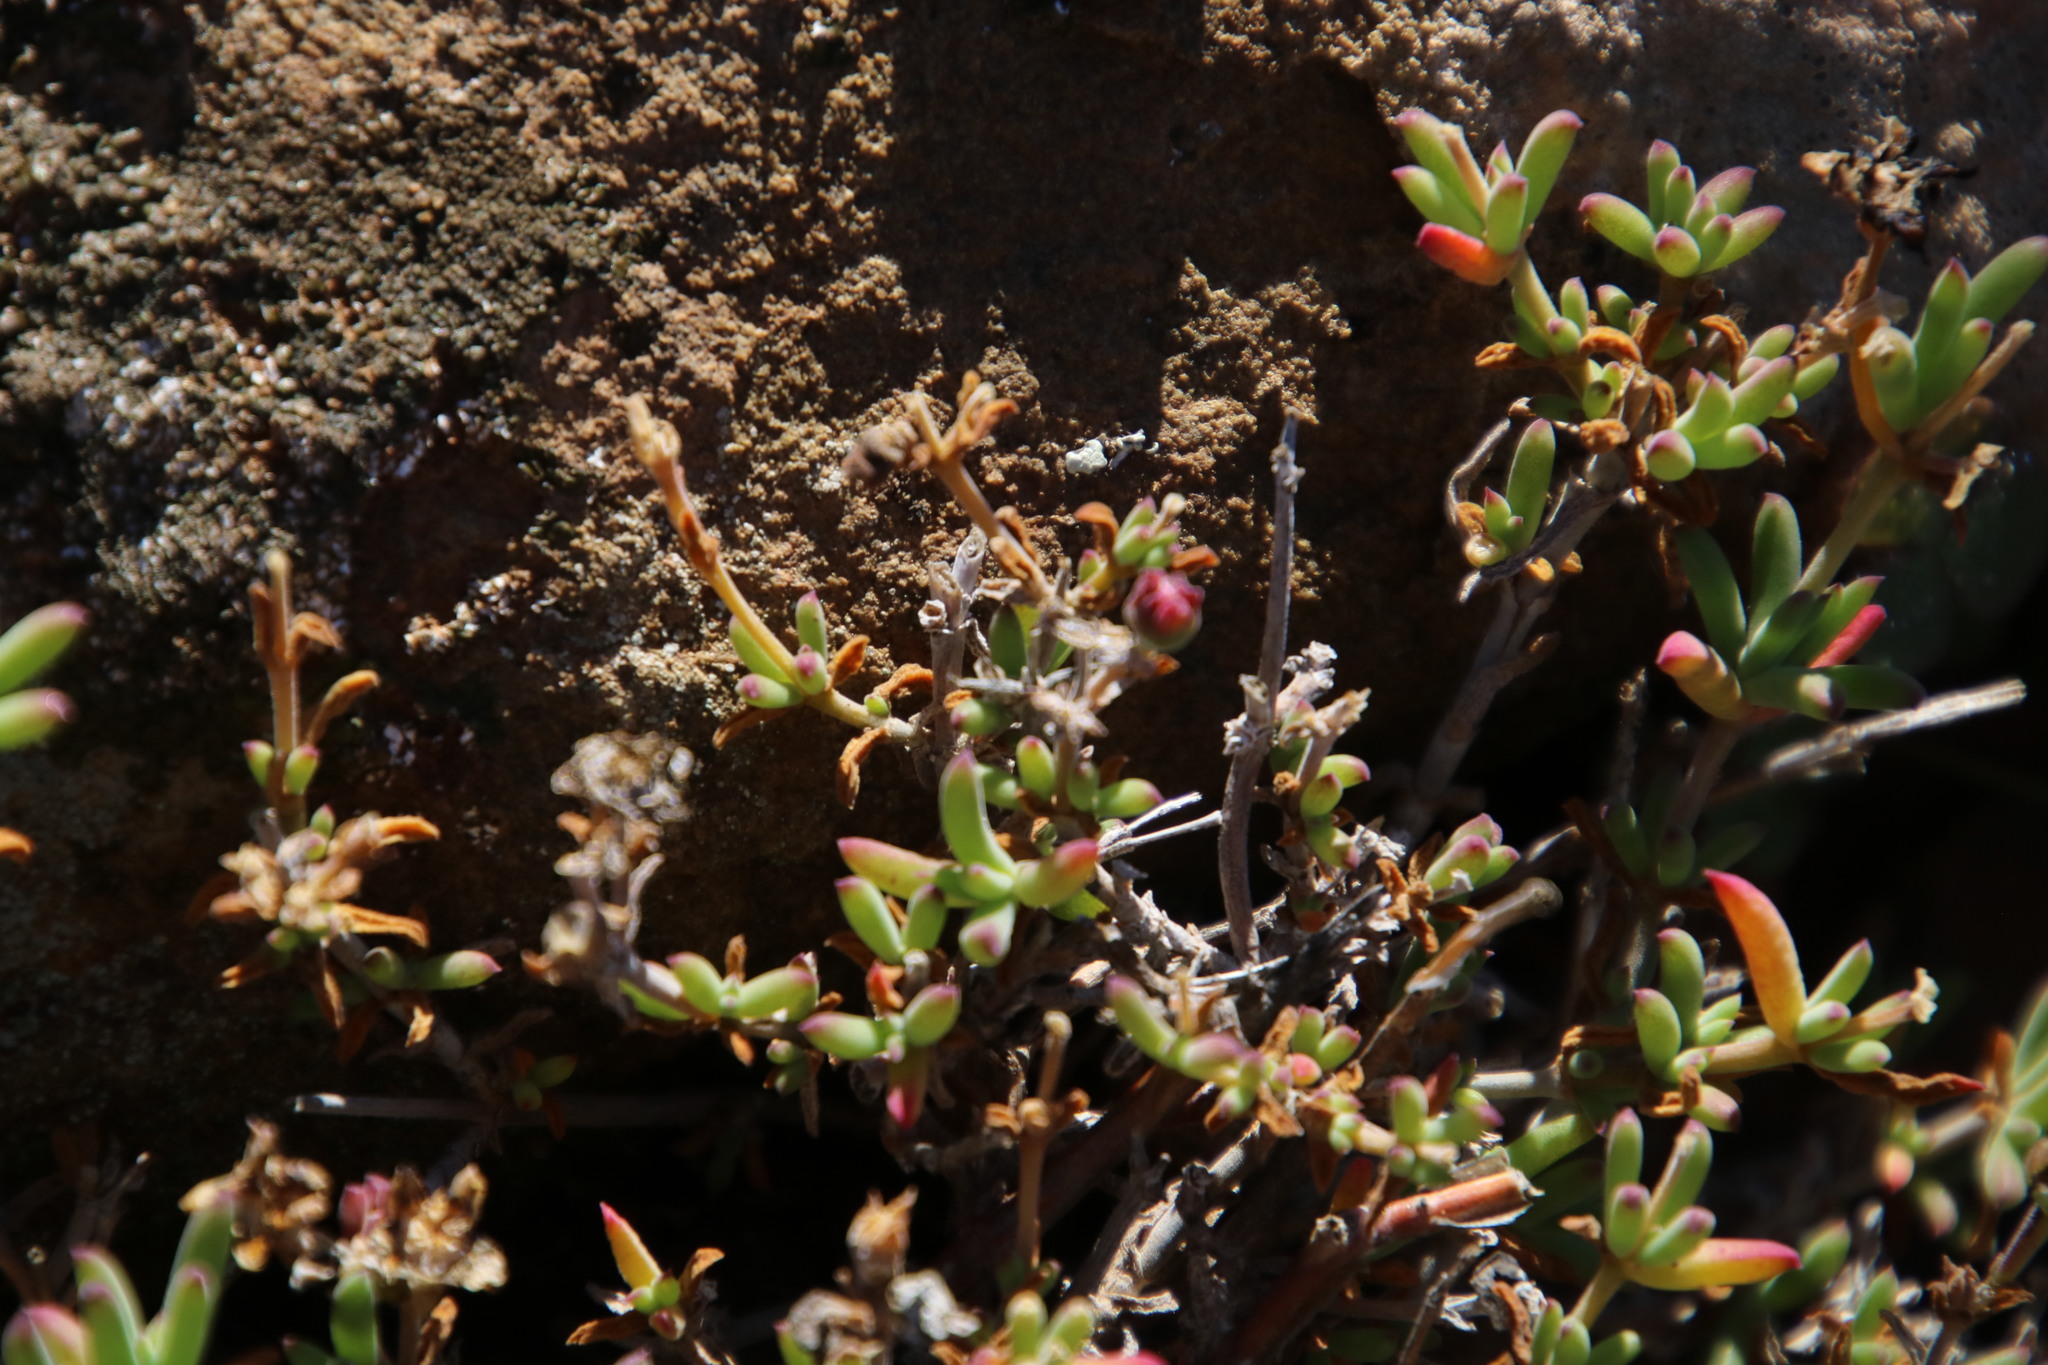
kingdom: Plantae
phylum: Tracheophyta
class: Magnoliopsida
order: Caryophyllales
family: Aizoaceae
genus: Delosperma
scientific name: Delosperma ornatulum
